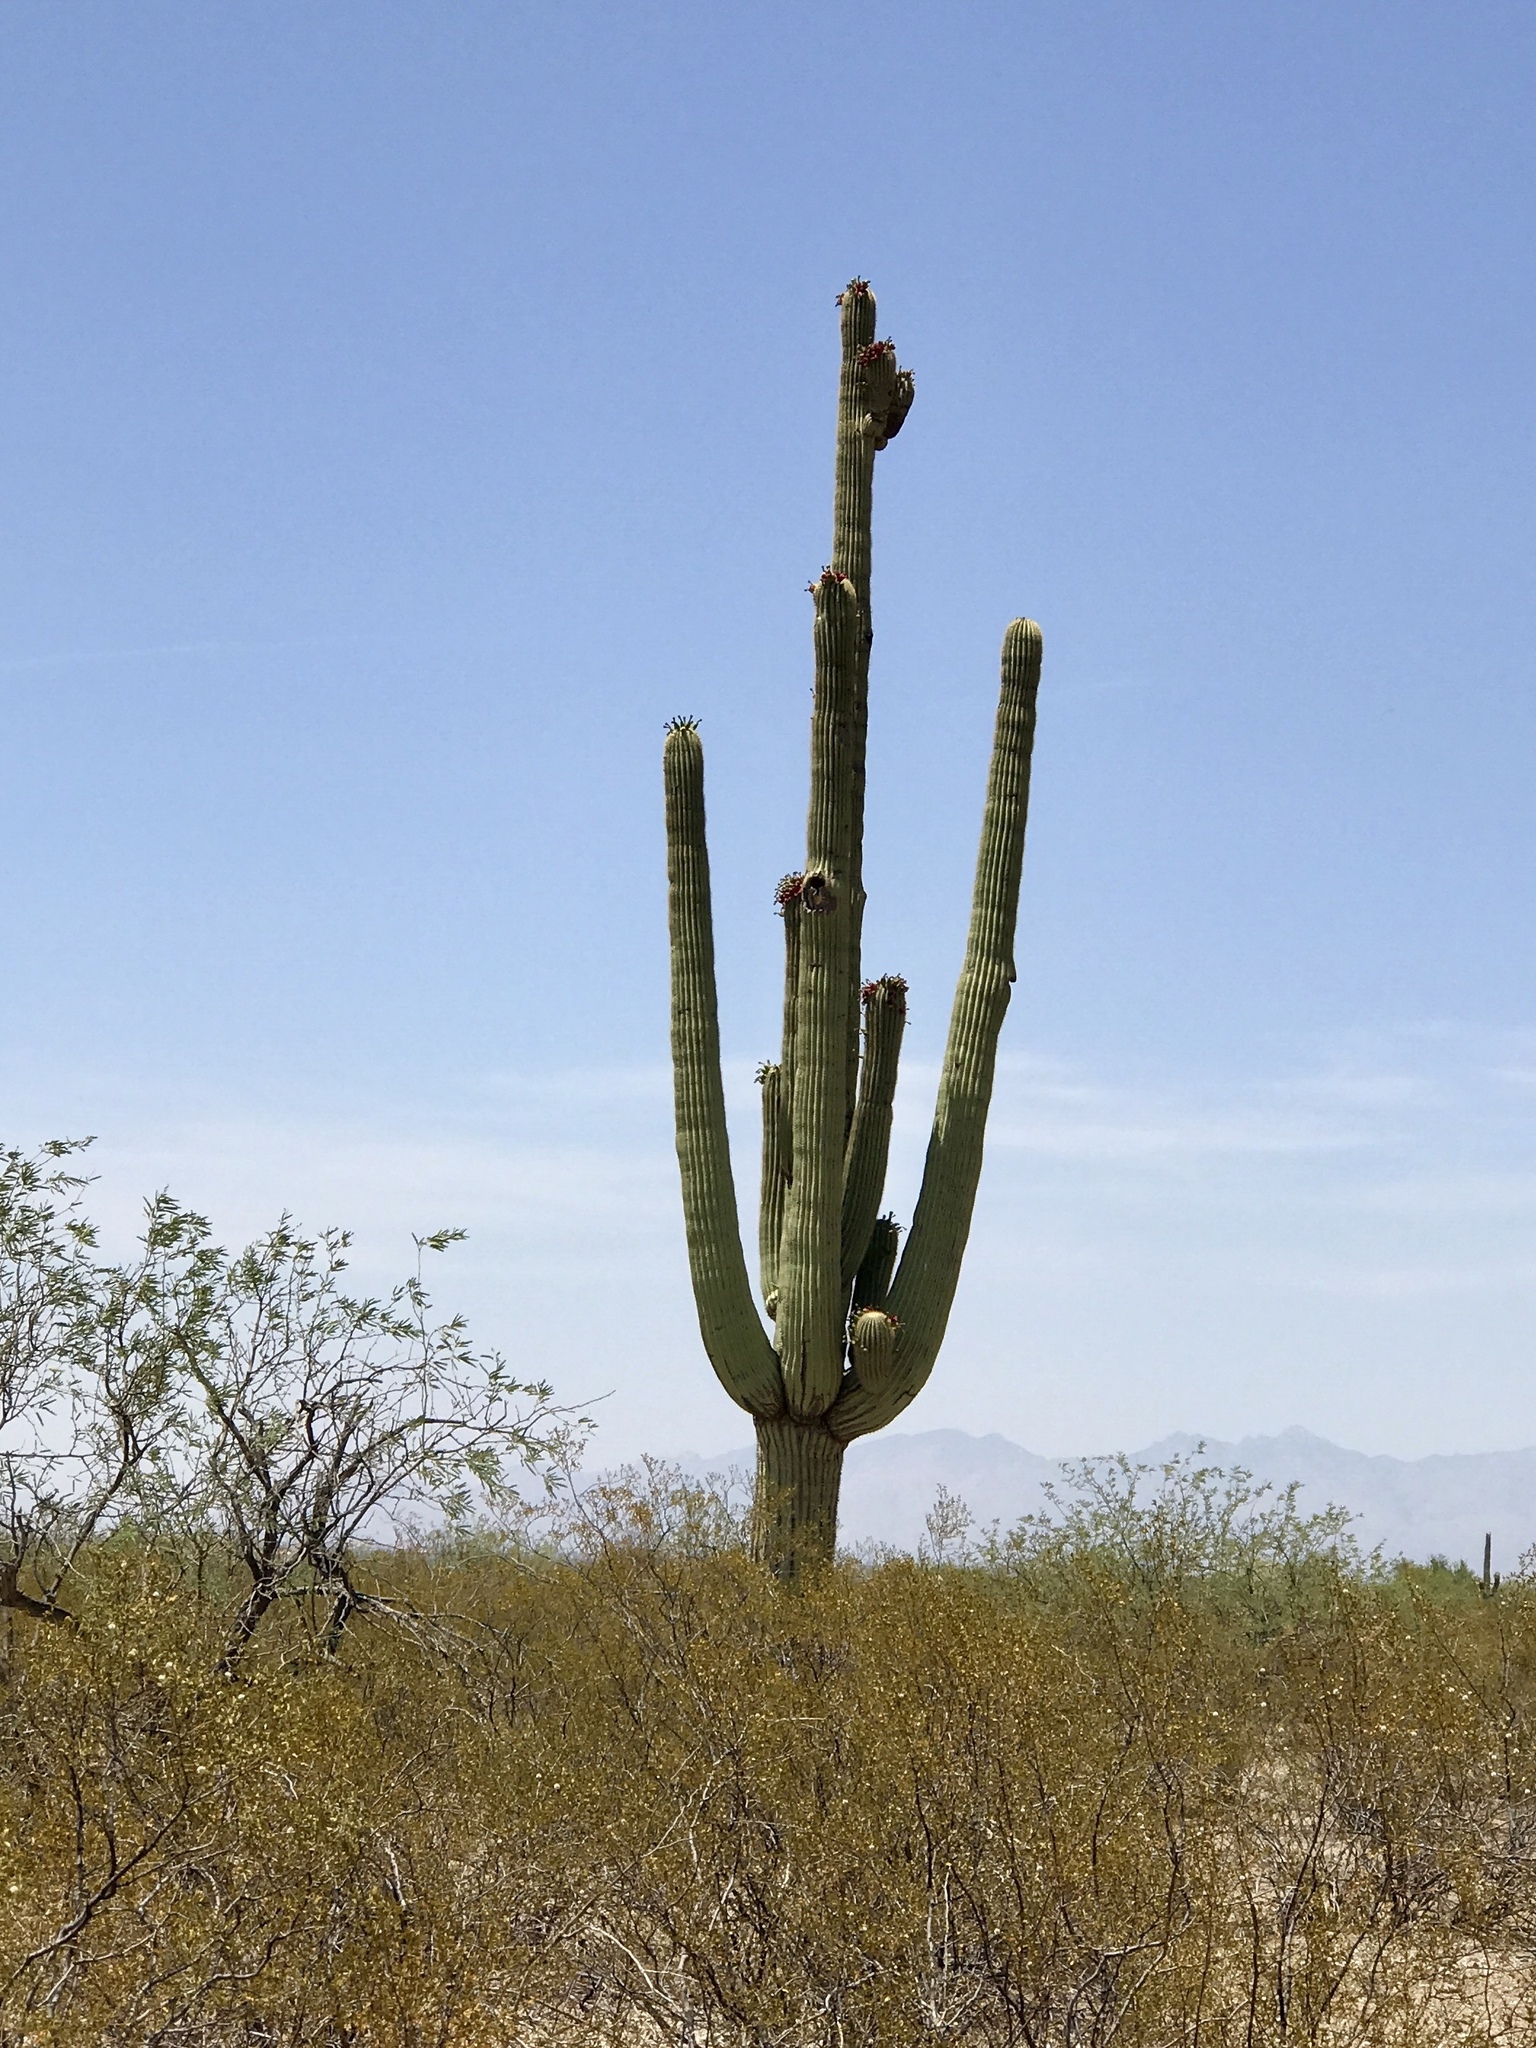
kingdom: Plantae
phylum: Tracheophyta
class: Magnoliopsida
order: Caryophyllales
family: Cactaceae
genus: Carnegiea
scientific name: Carnegiea gigantea
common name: Saguaro
